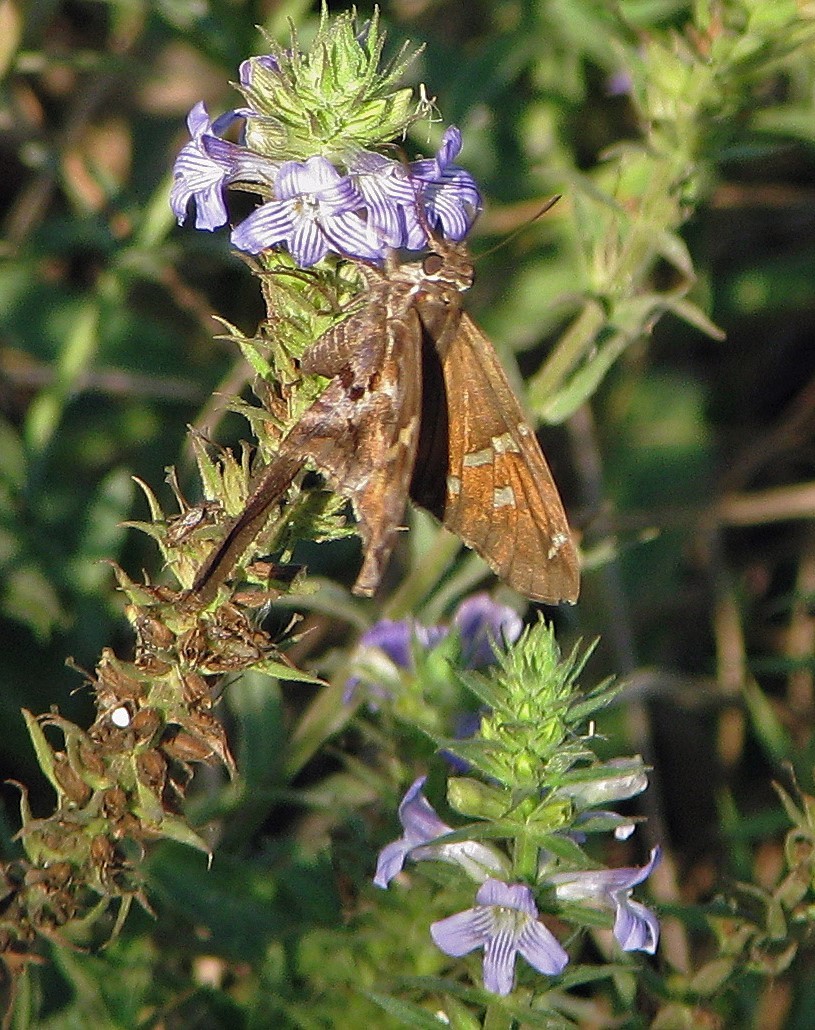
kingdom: Animalia
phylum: Arthropoda
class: Insecta
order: Lepidoptera
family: Hesperiidae
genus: Chioides
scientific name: Chioides catillus
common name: Silverbanded skipper
